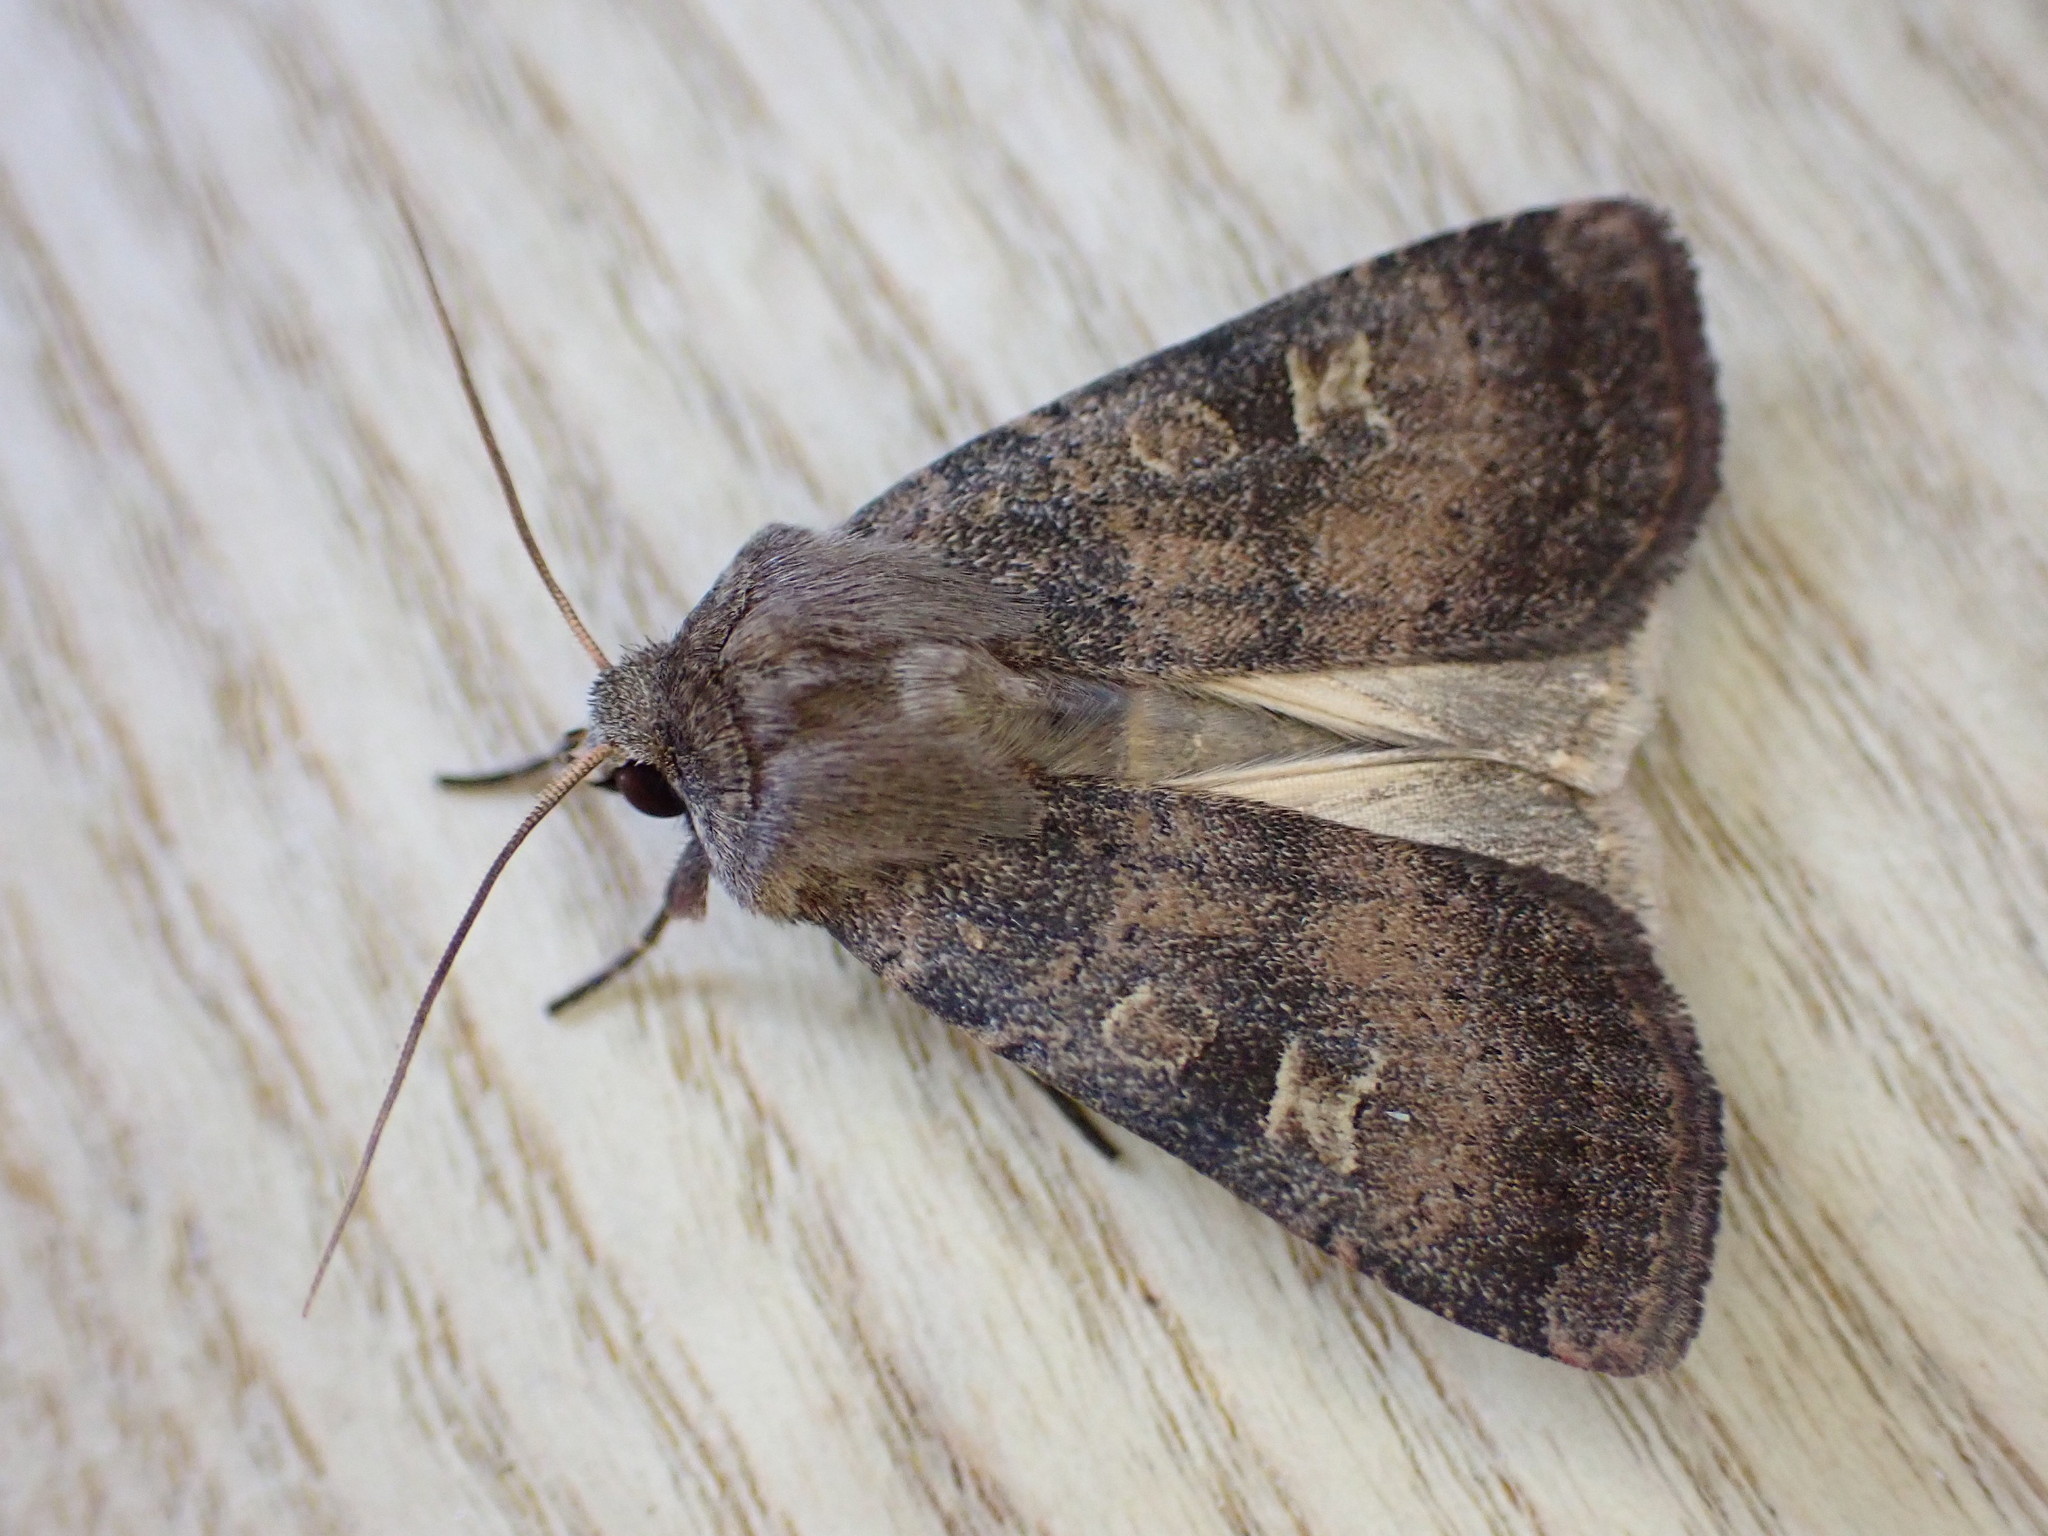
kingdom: Animalia
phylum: Arthropoda
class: Insecta
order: Lepidoptera
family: Noctuidae
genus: Xestia
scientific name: Xestia xanthographa
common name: Square-spot rustic
